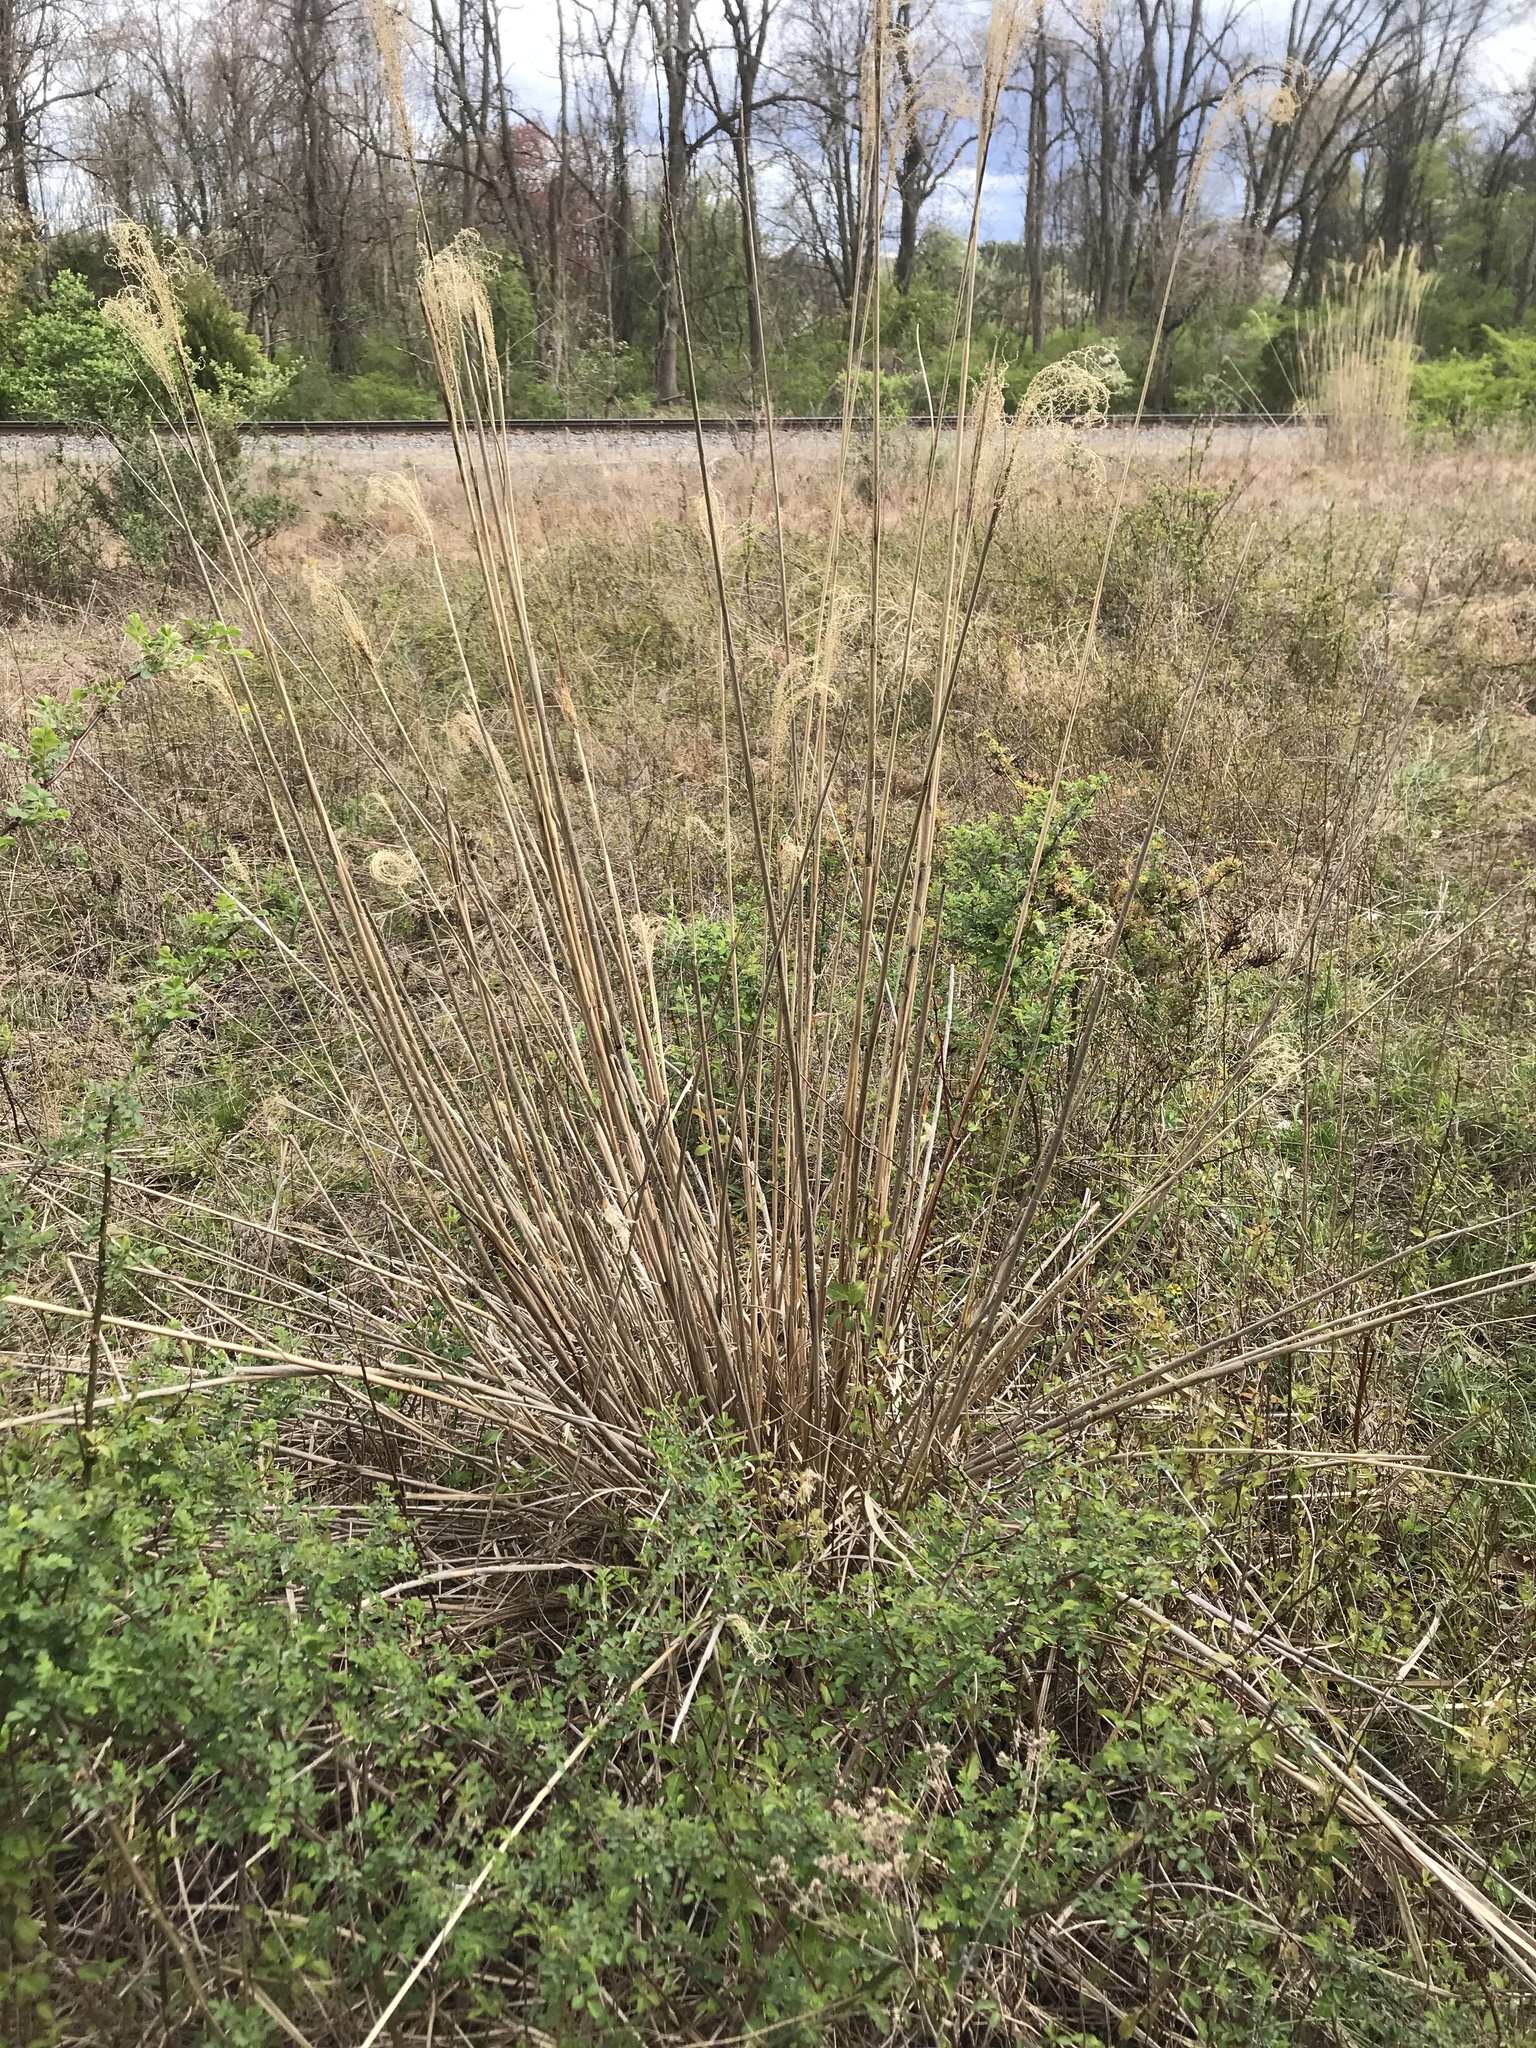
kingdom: Plantae
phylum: Tracheophyta
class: Liliopsida
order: Poales
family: Poaceae
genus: Miscanthus
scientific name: Miscanthus sinensis
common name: Chinese silvergrass
